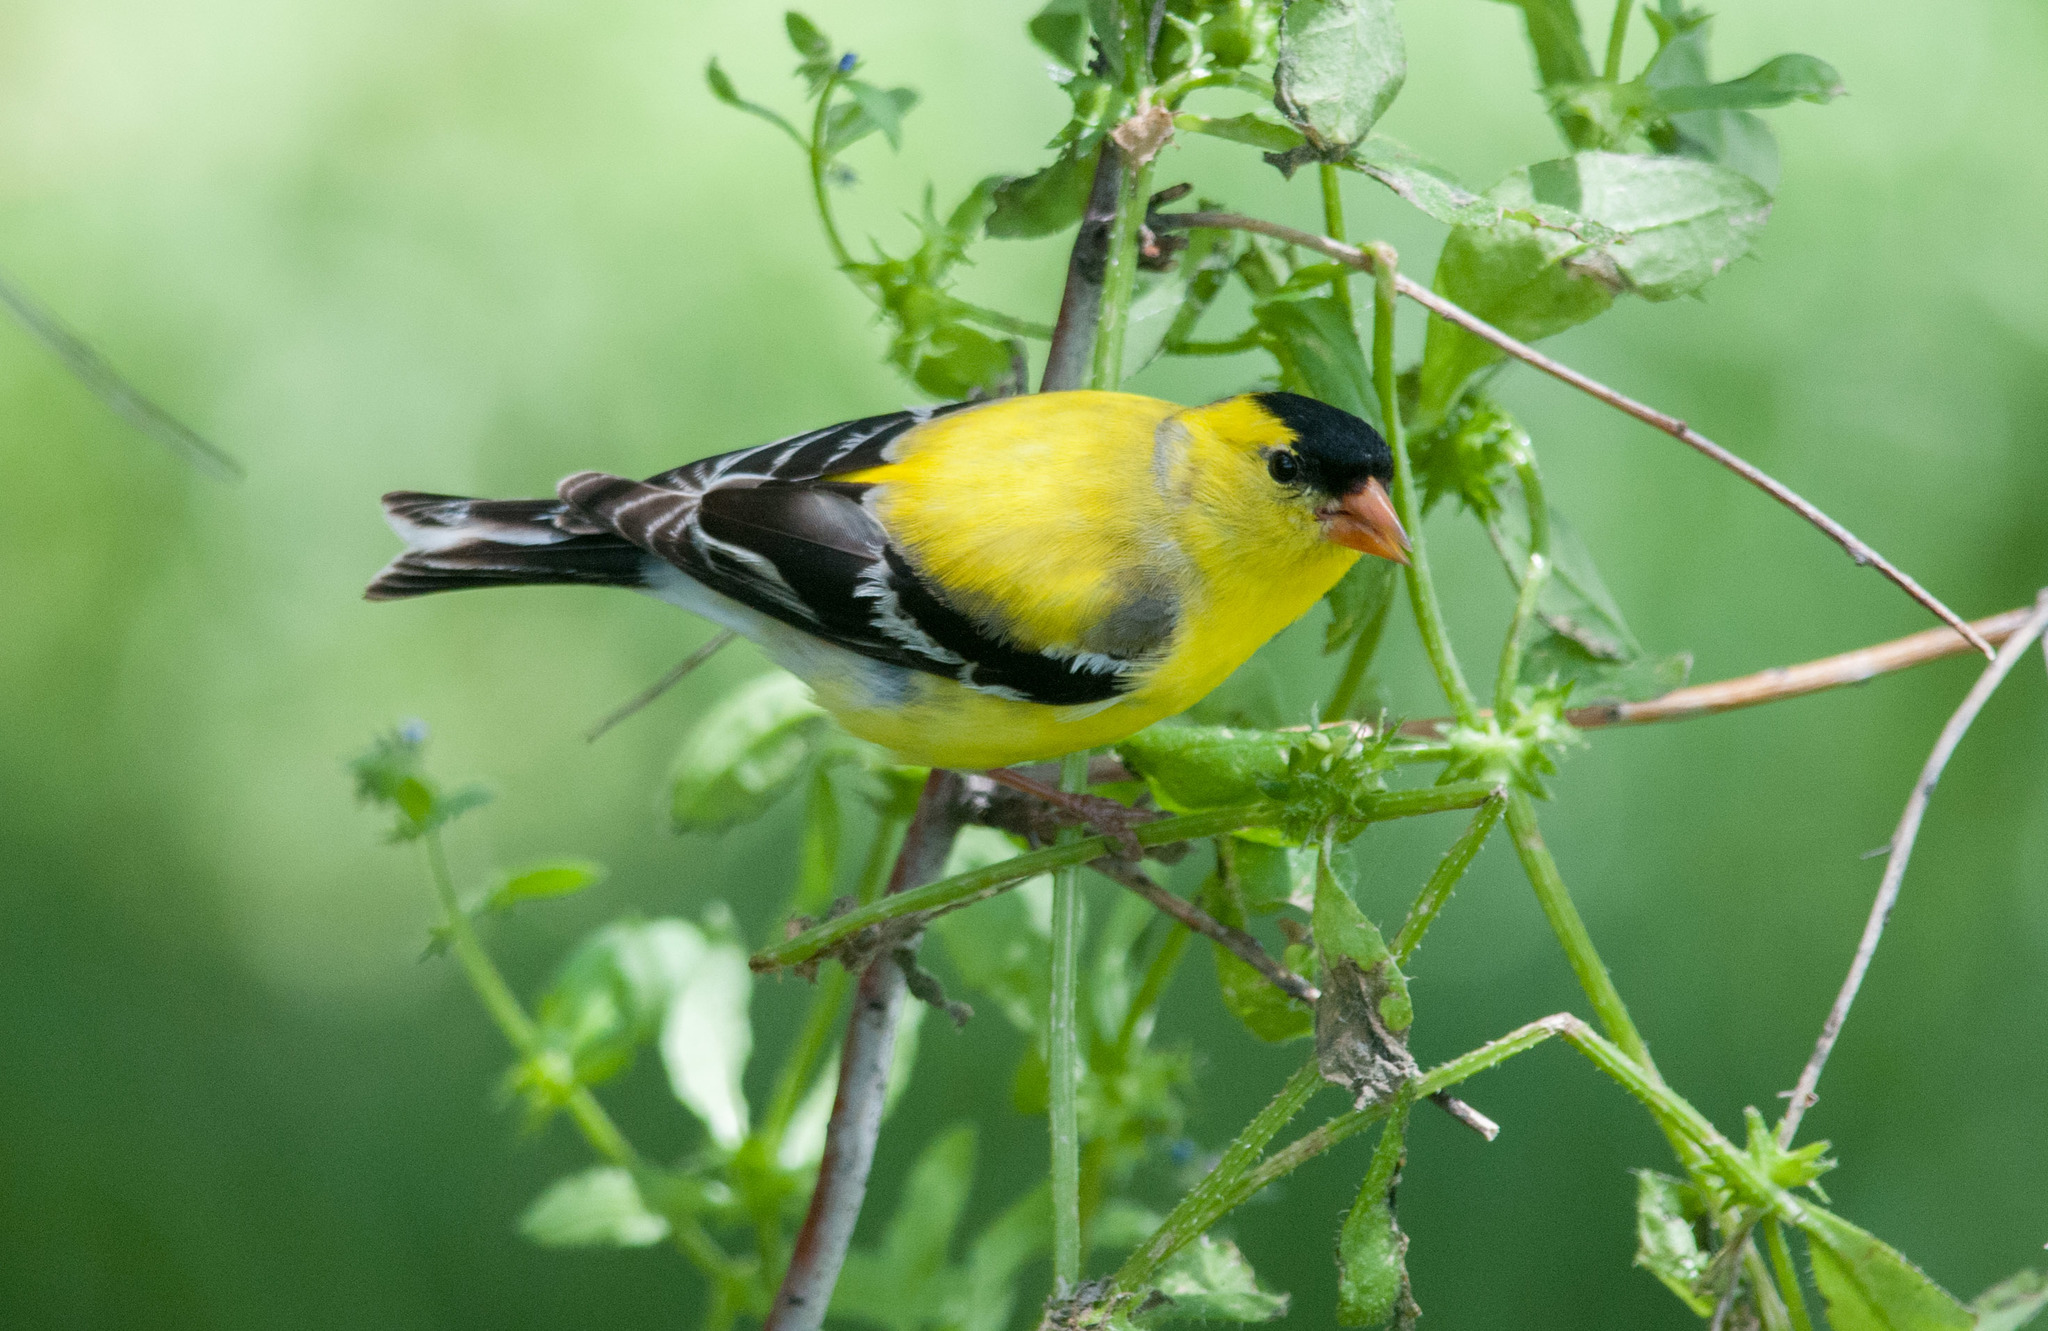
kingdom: Animalia
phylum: Chordata
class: Aves
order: Passeriformes
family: Fringillidae
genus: Spinus
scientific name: Spinus tristis
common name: American goldfinch
